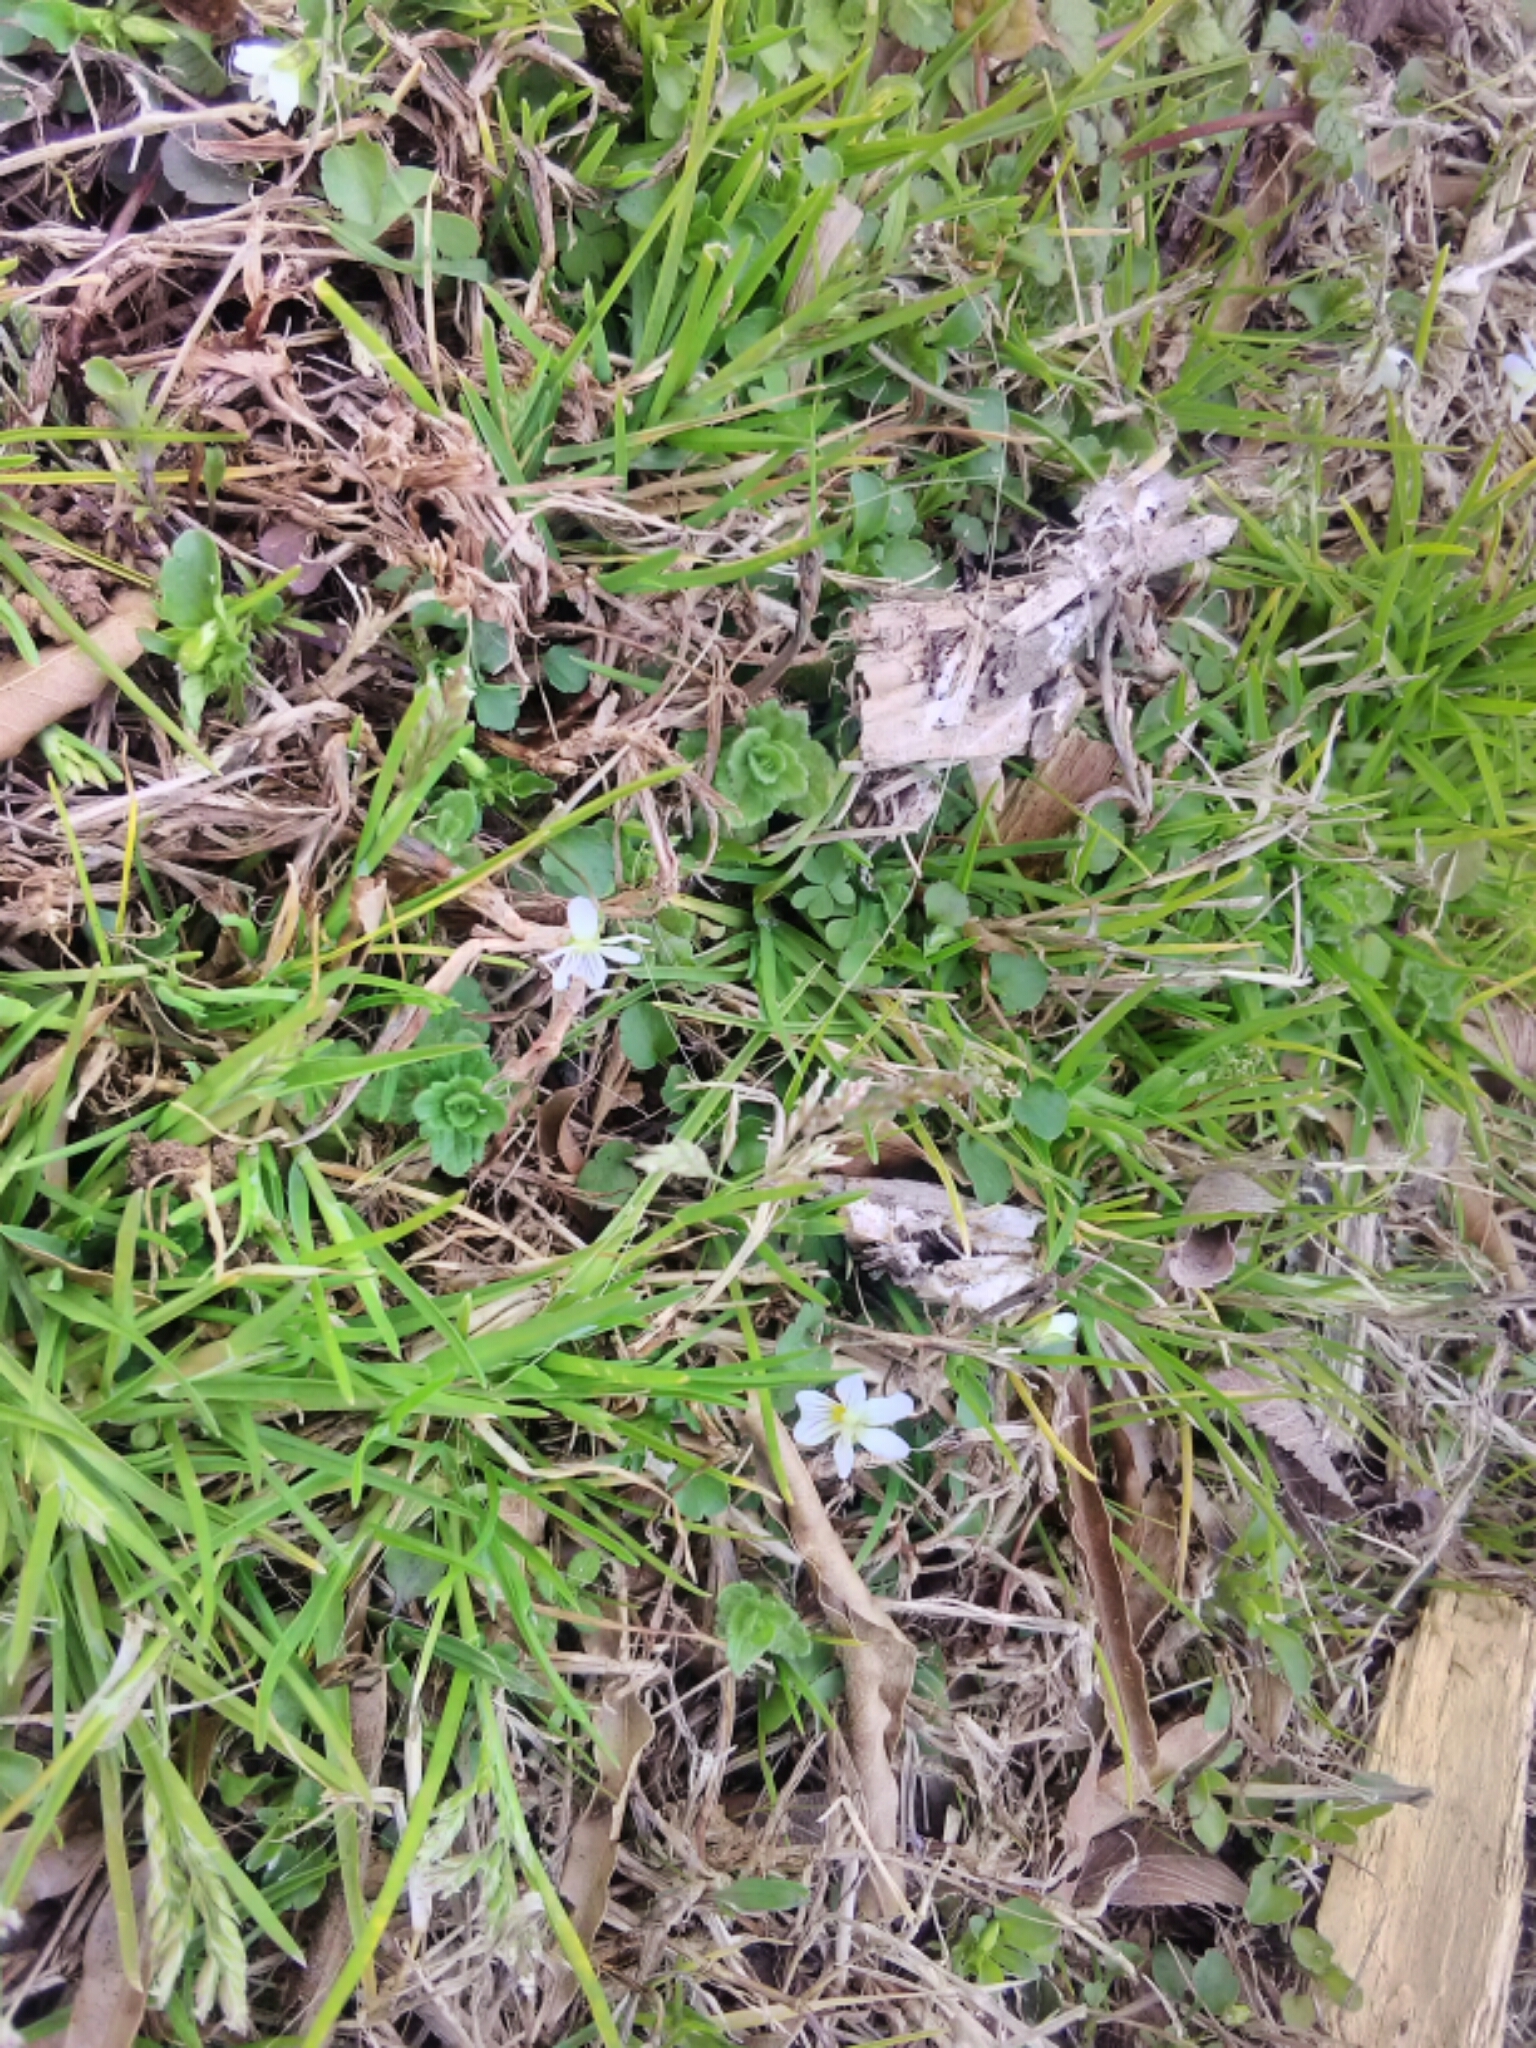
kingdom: Plantae
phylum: Tracheophyta
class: Magnoliopsida
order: Malpighiales
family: Violaceae
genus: Viola
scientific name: Viola rafinesquei
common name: American field pansy
